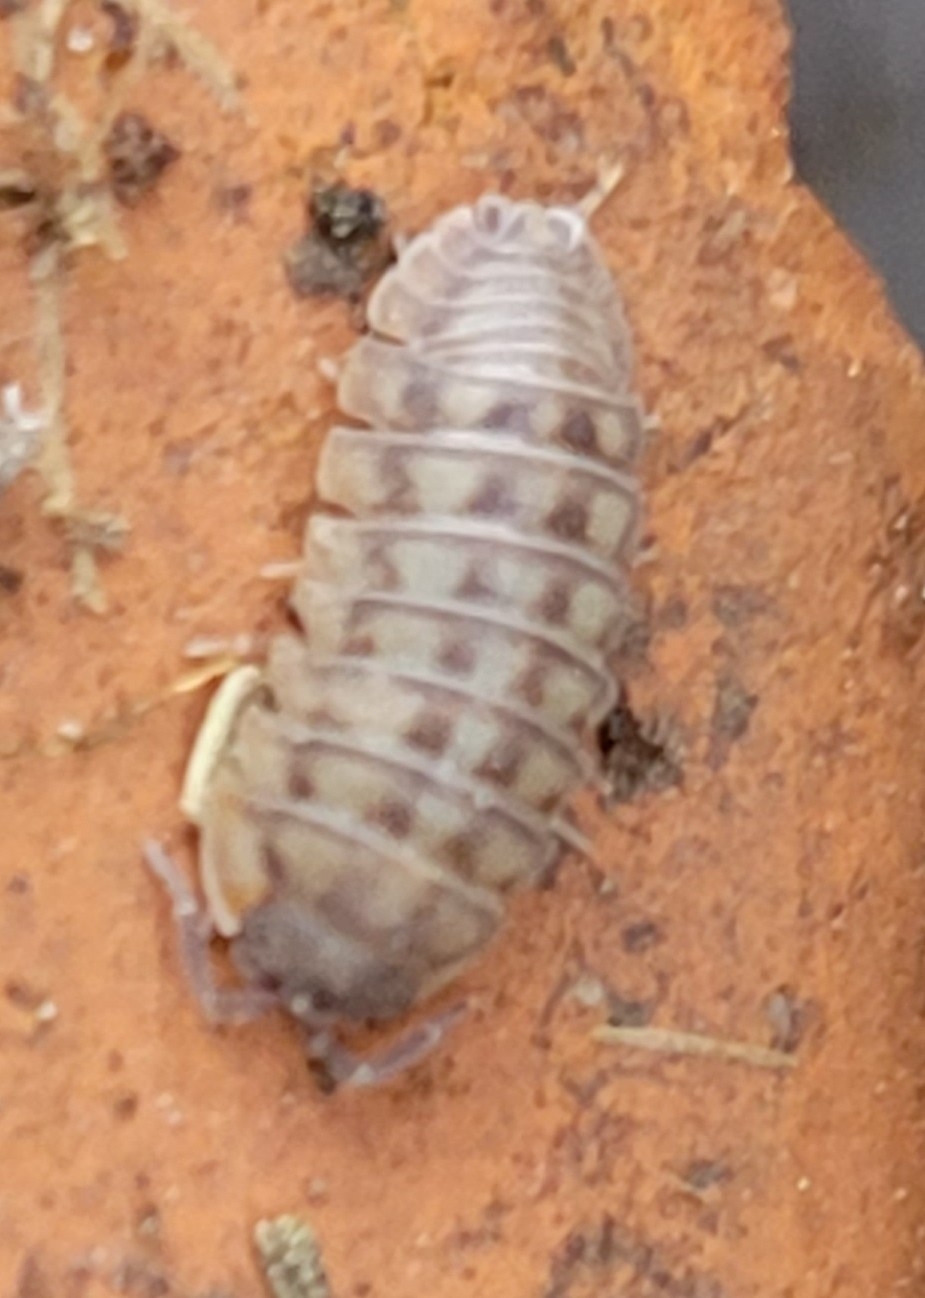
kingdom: Animalia
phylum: Arthropoda
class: Malacostraca
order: Isopoda
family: Armadillidiidae
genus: Armadillidium
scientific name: Armadillidium nasatum
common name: Isopod
